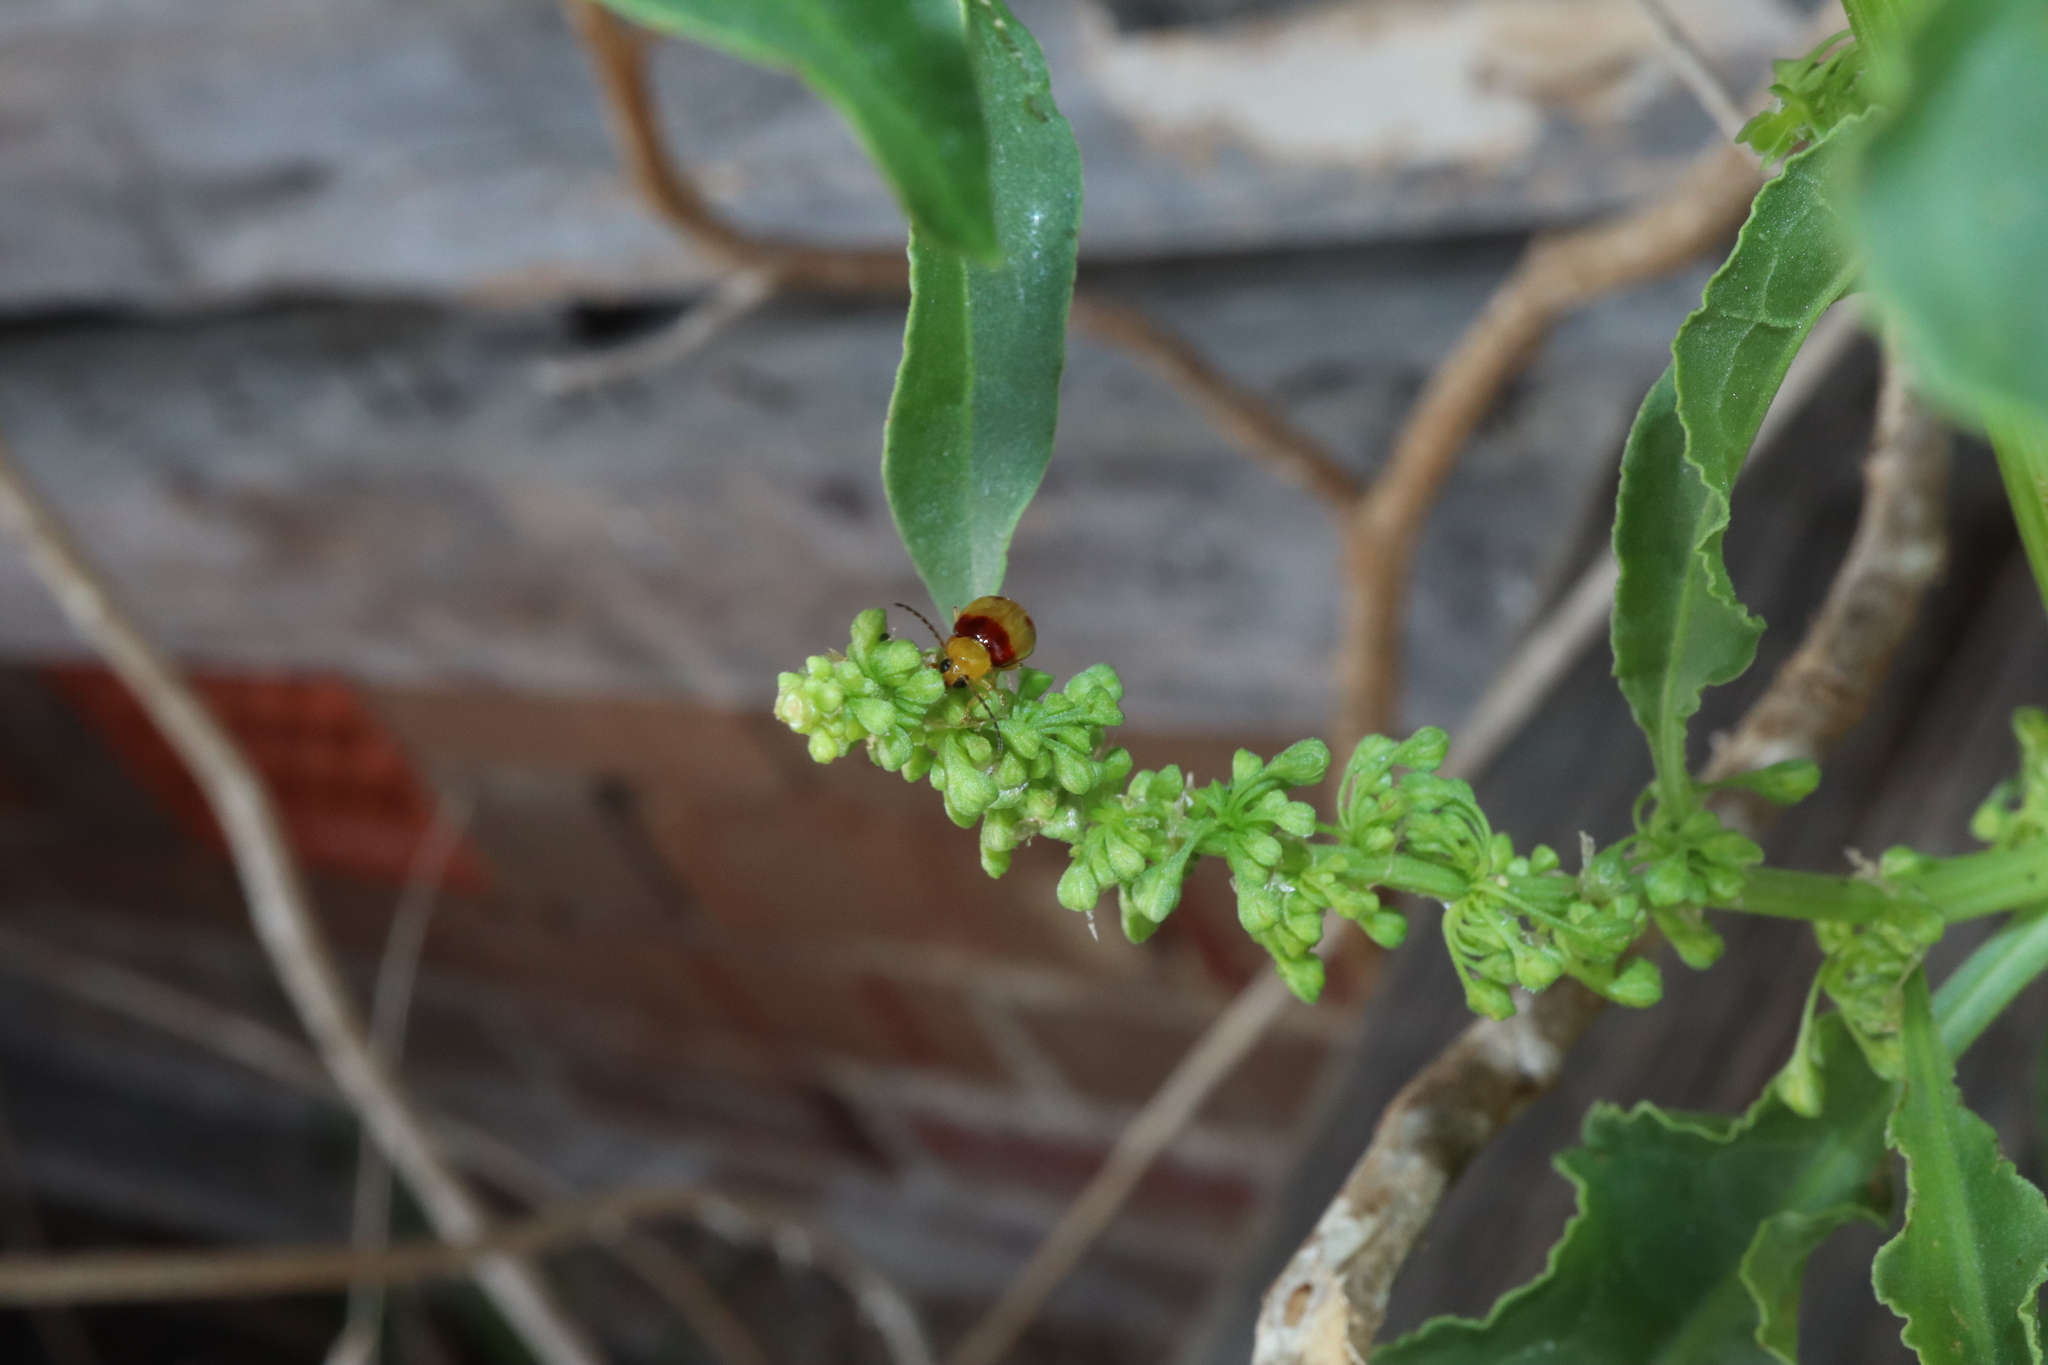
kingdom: Animalia
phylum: Arthropoda
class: Insecta
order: Coleoptera
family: Chrysomelidae
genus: Monolepta
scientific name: Monolepta
